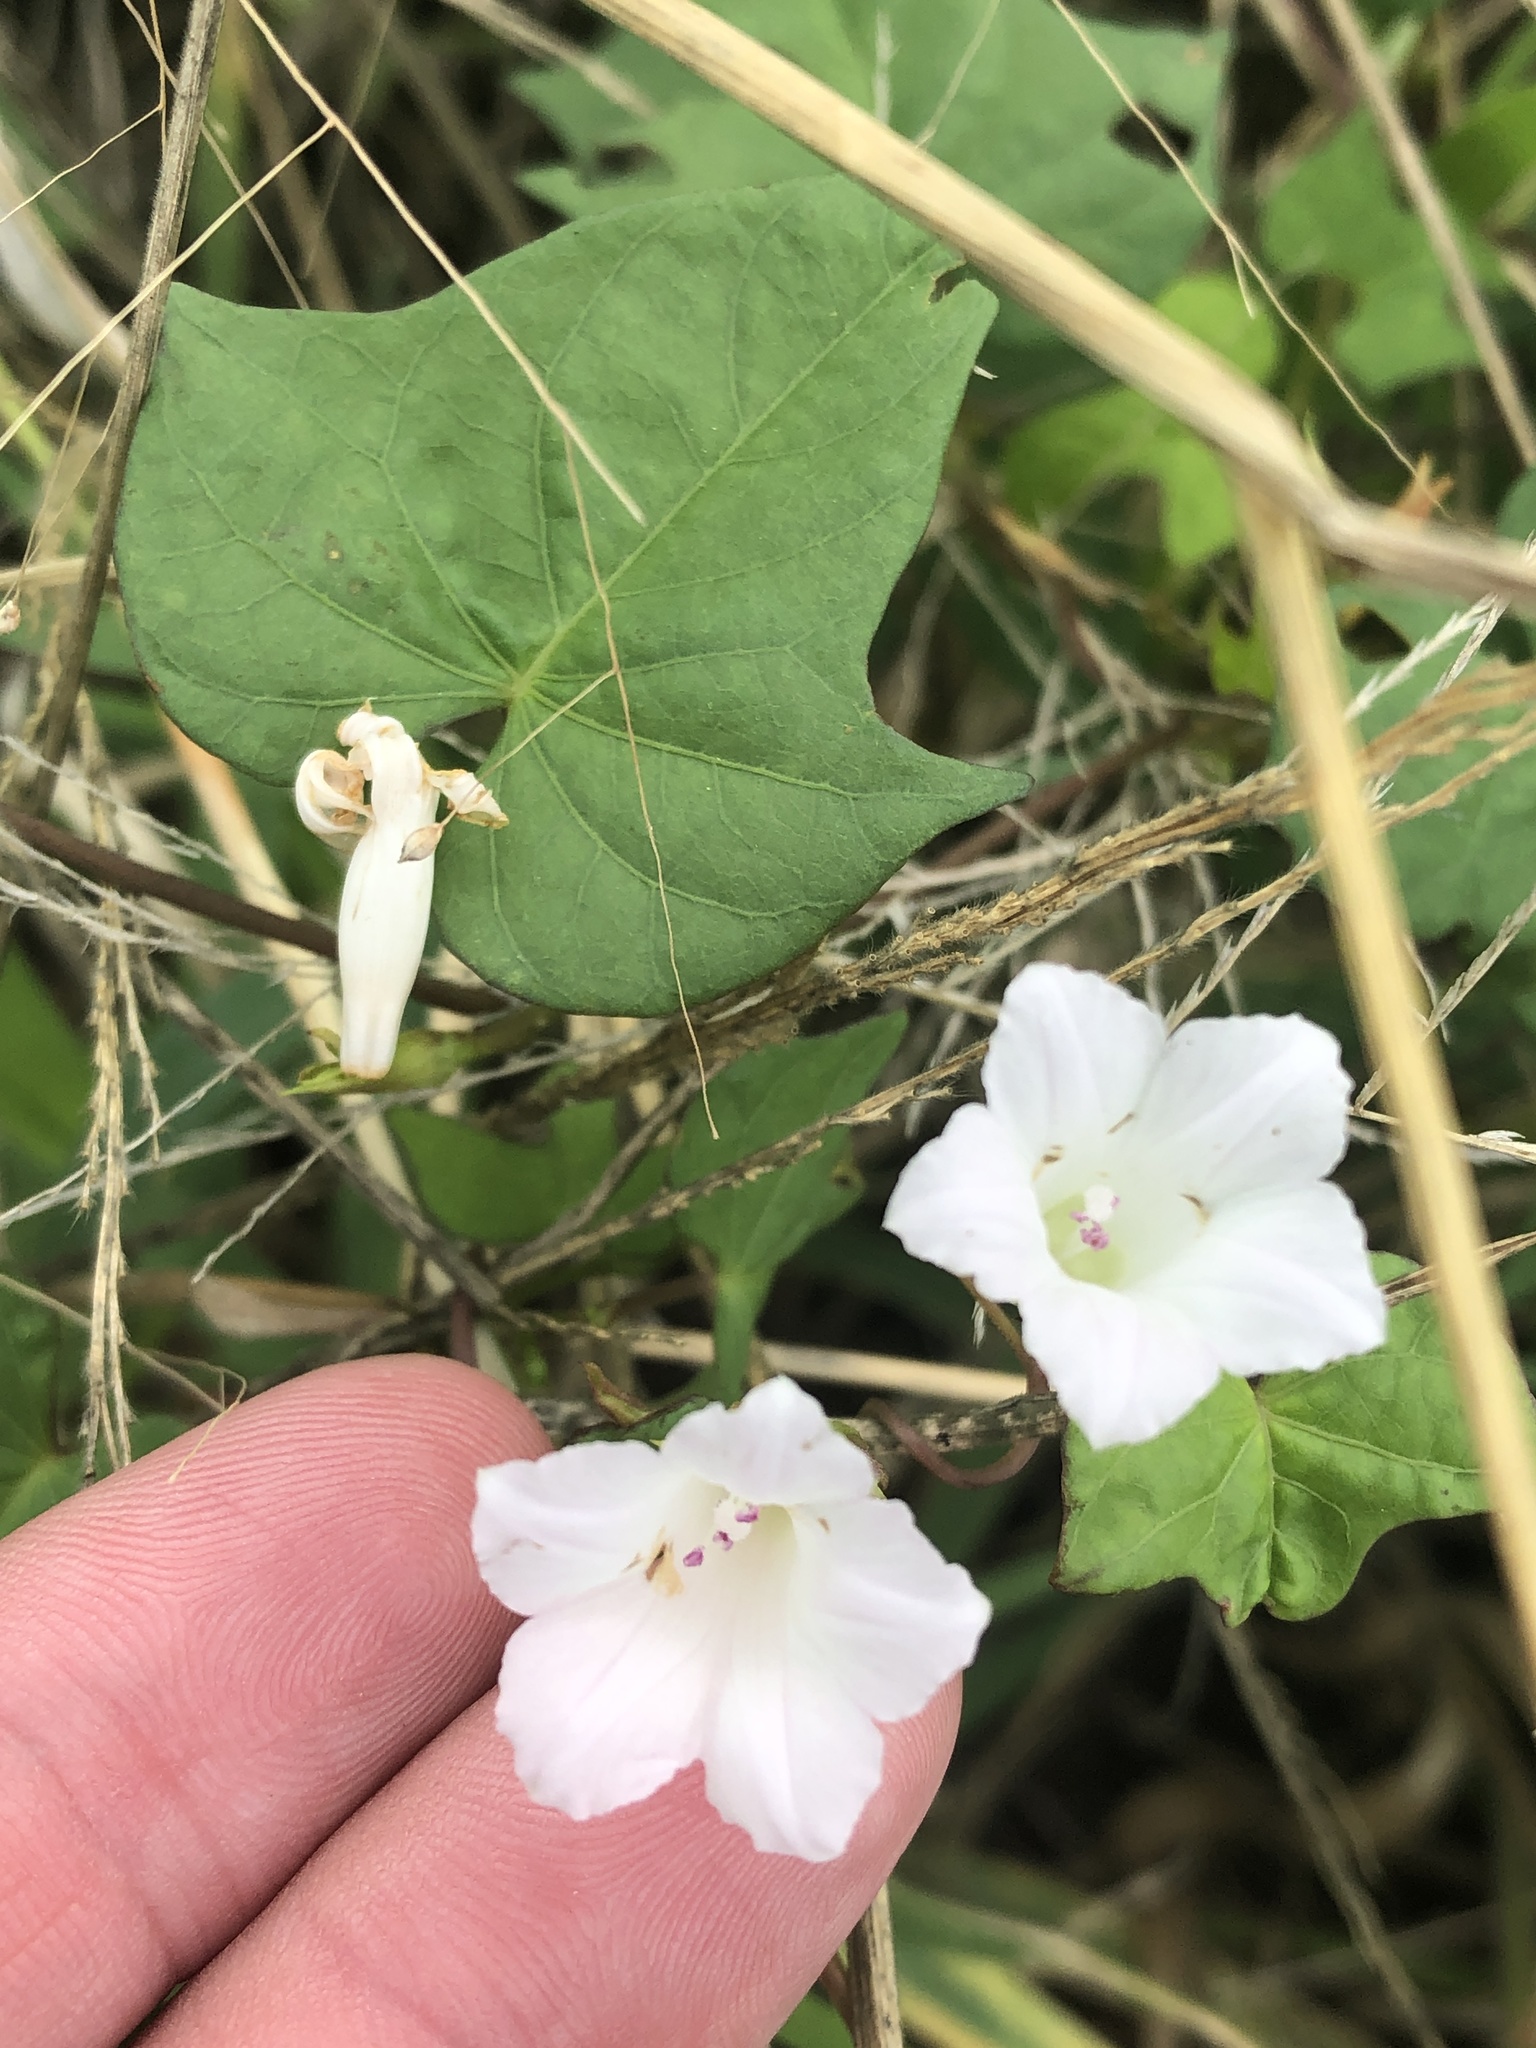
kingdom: Plantae
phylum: Tracheophyta
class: Magnoliopsida
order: Solanales
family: Convolvulaceae
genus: Ipomoea
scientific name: Ipomoea lacunosa
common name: White morning-glory
